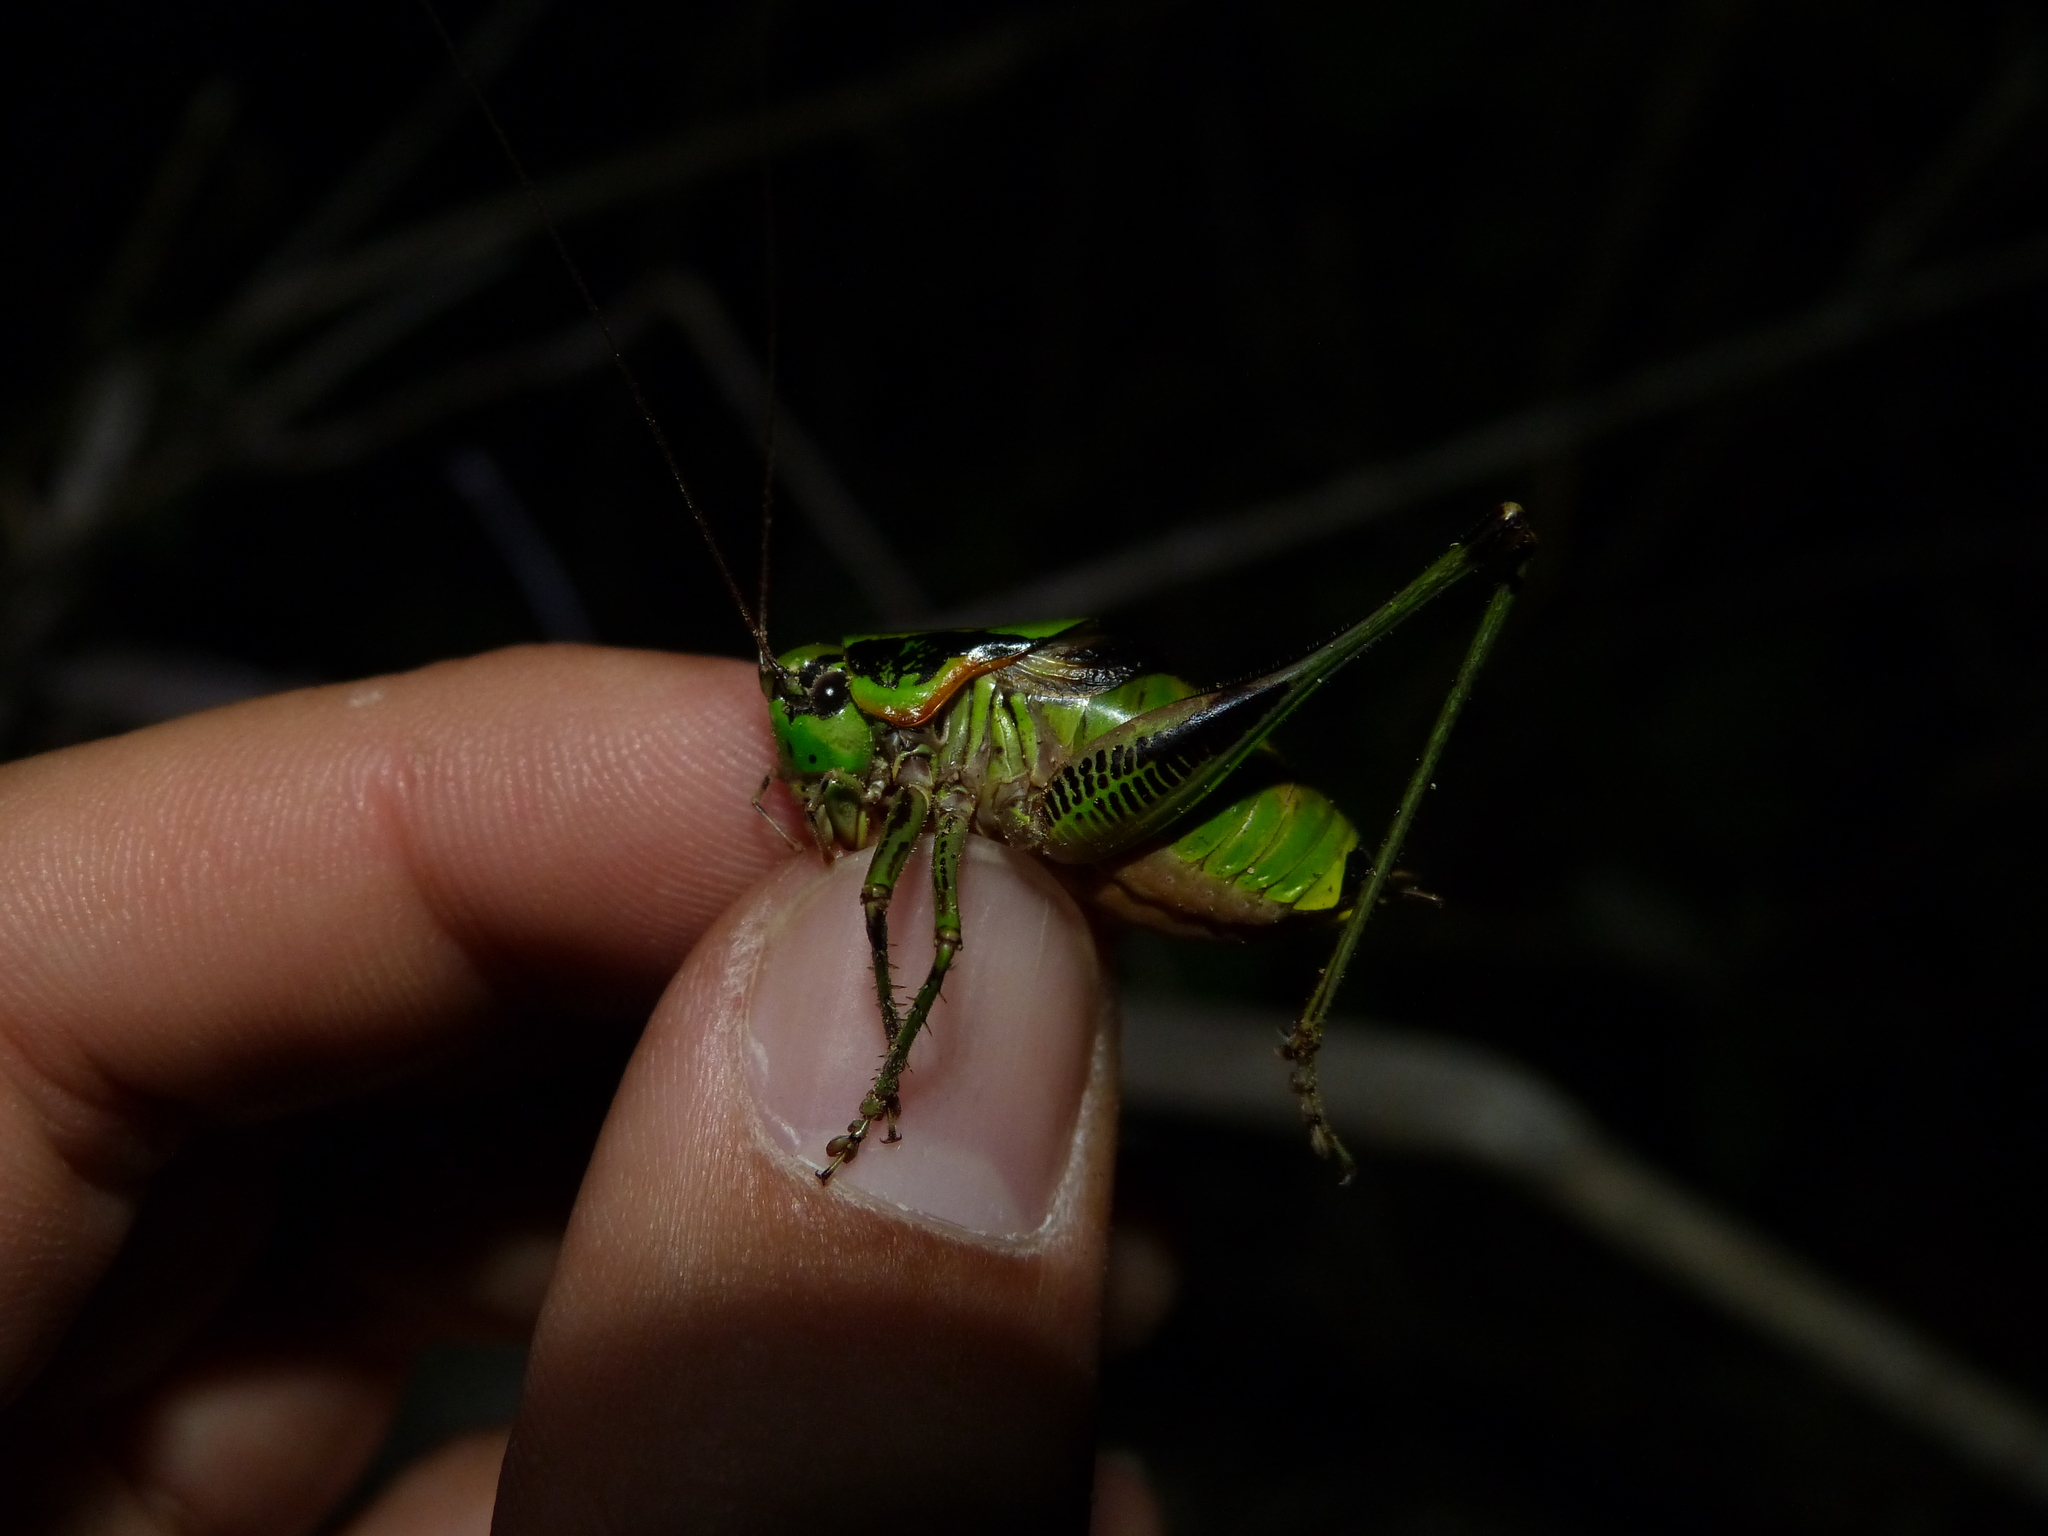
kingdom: Animalia
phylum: Arthropoda
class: Insecta
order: Orthoptera
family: Tettigoniidae
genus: Eupholidoptera
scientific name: Eupholidoptera schmidti
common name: Schmidt's marbled bush-cricket
